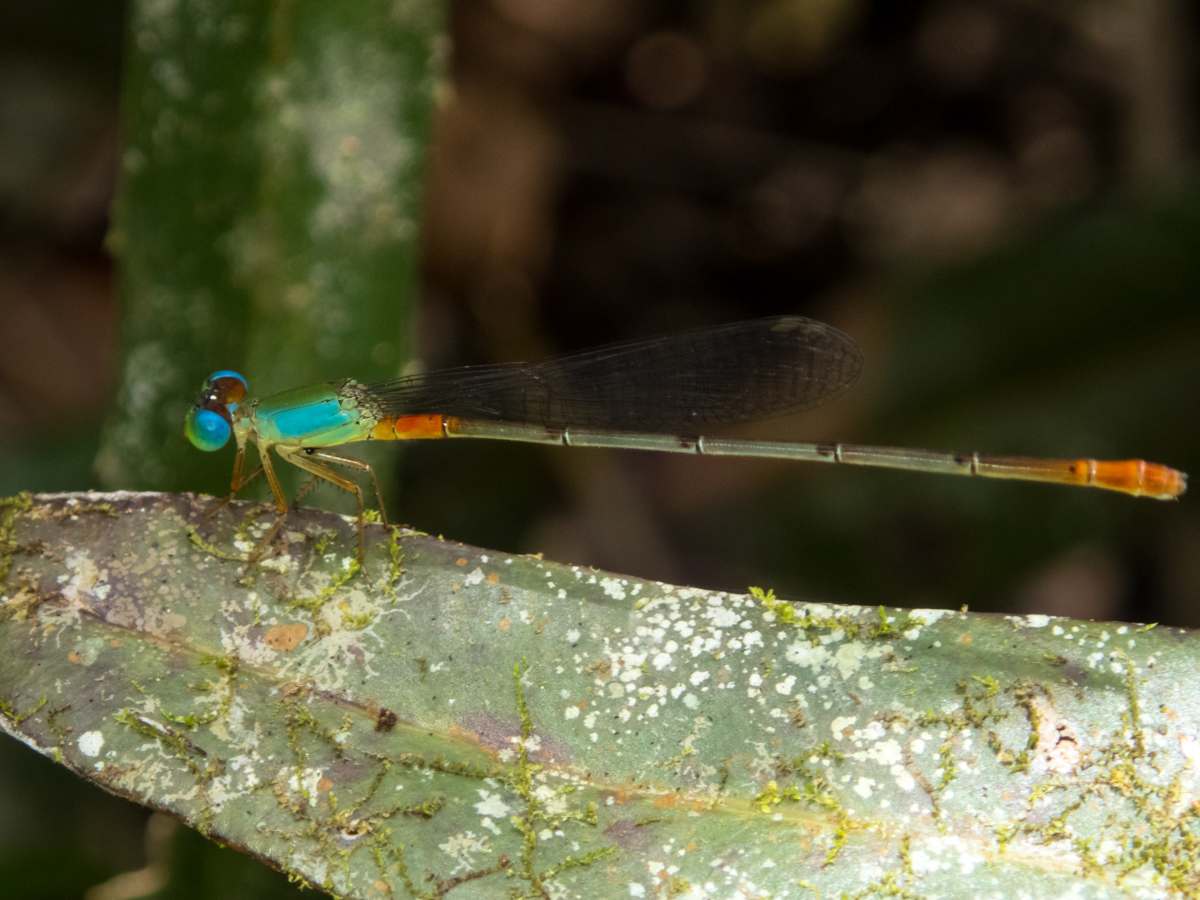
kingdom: Animalia
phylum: Arthropoda
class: Insecta
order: Odonata
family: Coenagrionidae
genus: Ceriagrion
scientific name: Ceriagrion cerinorubellum
